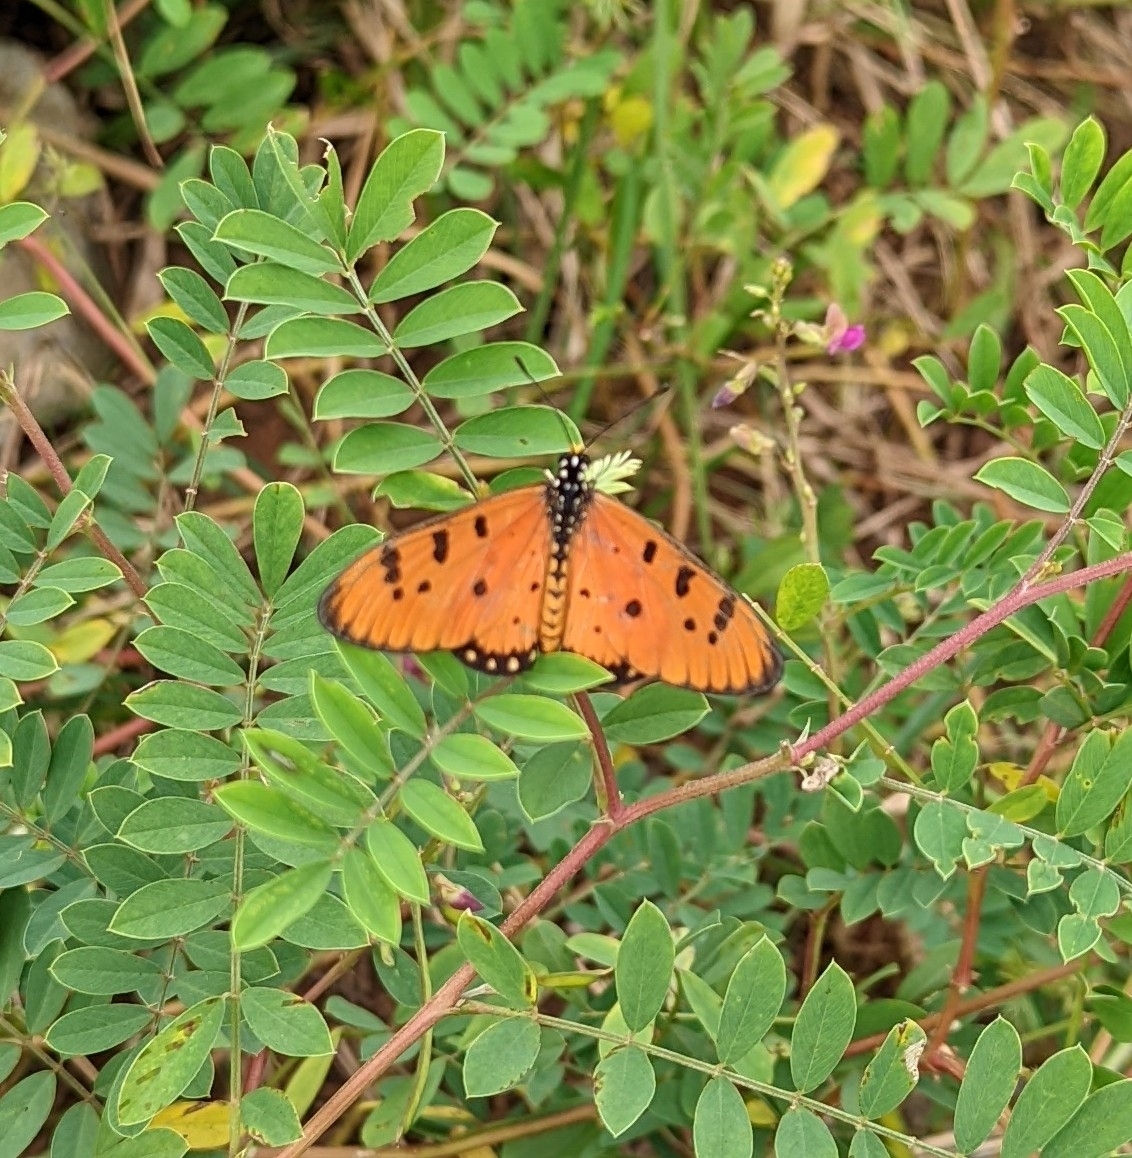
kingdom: Animalia
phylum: Arthropoda
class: Insecta
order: Lepidoptera
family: Nymphalidae
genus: Acraea
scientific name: Acraea terpsicore
